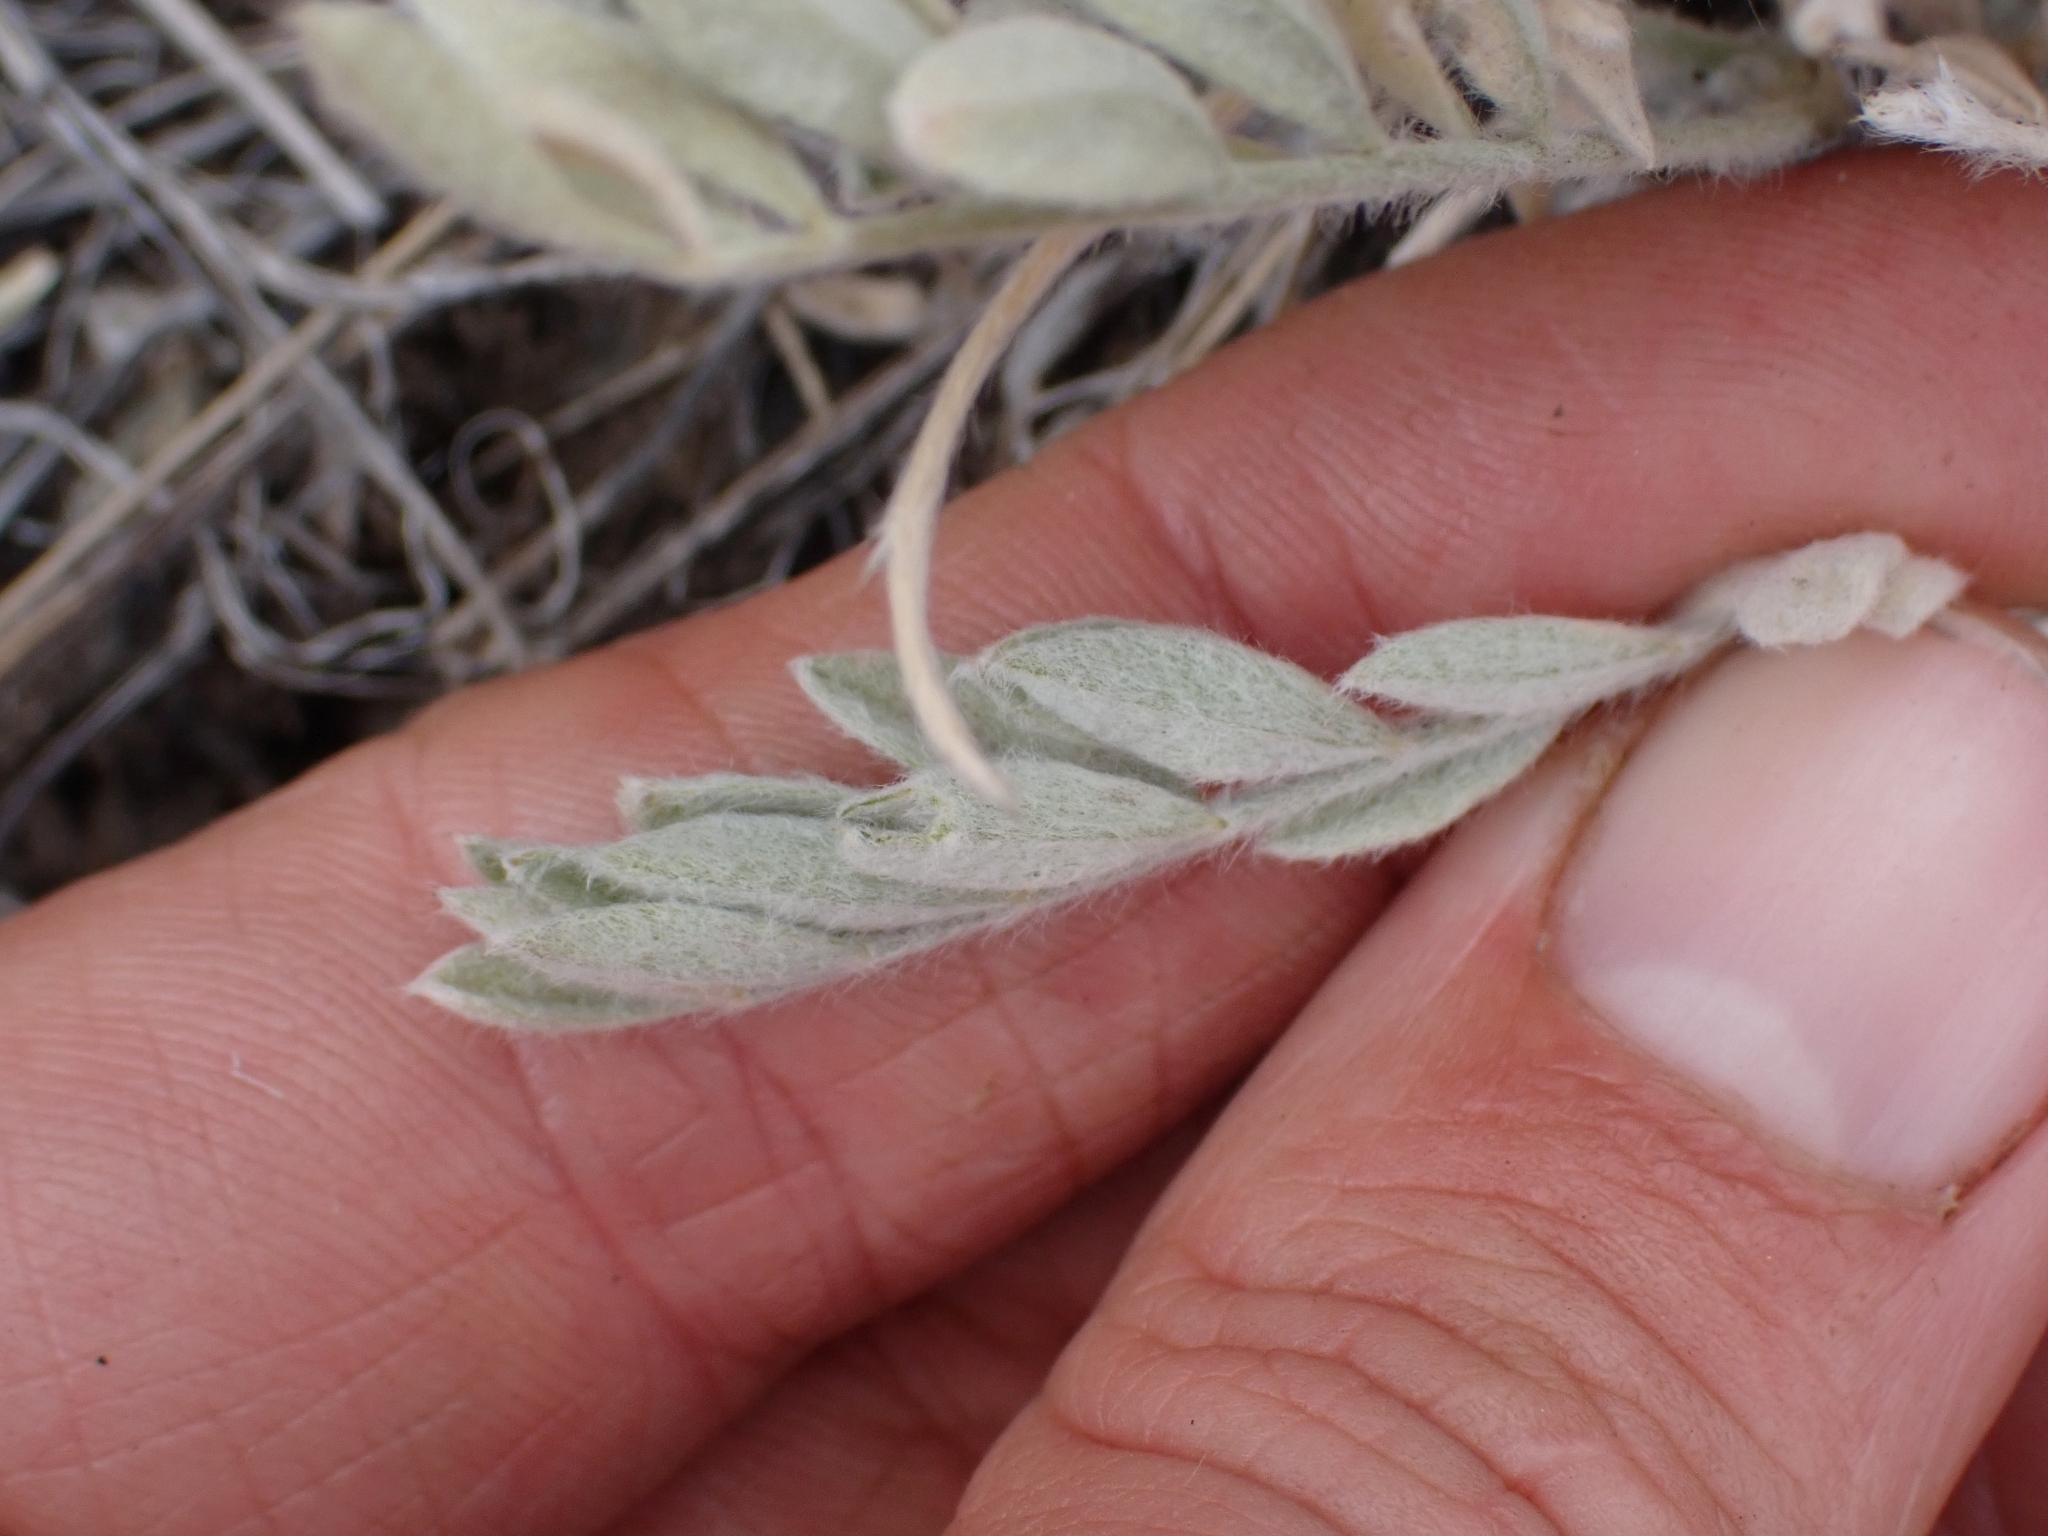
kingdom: Plantae
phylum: Tracheophyta
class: Magnoliopsida
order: Fabales
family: Fabaceae
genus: Astragalus
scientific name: Astragalus purshii
